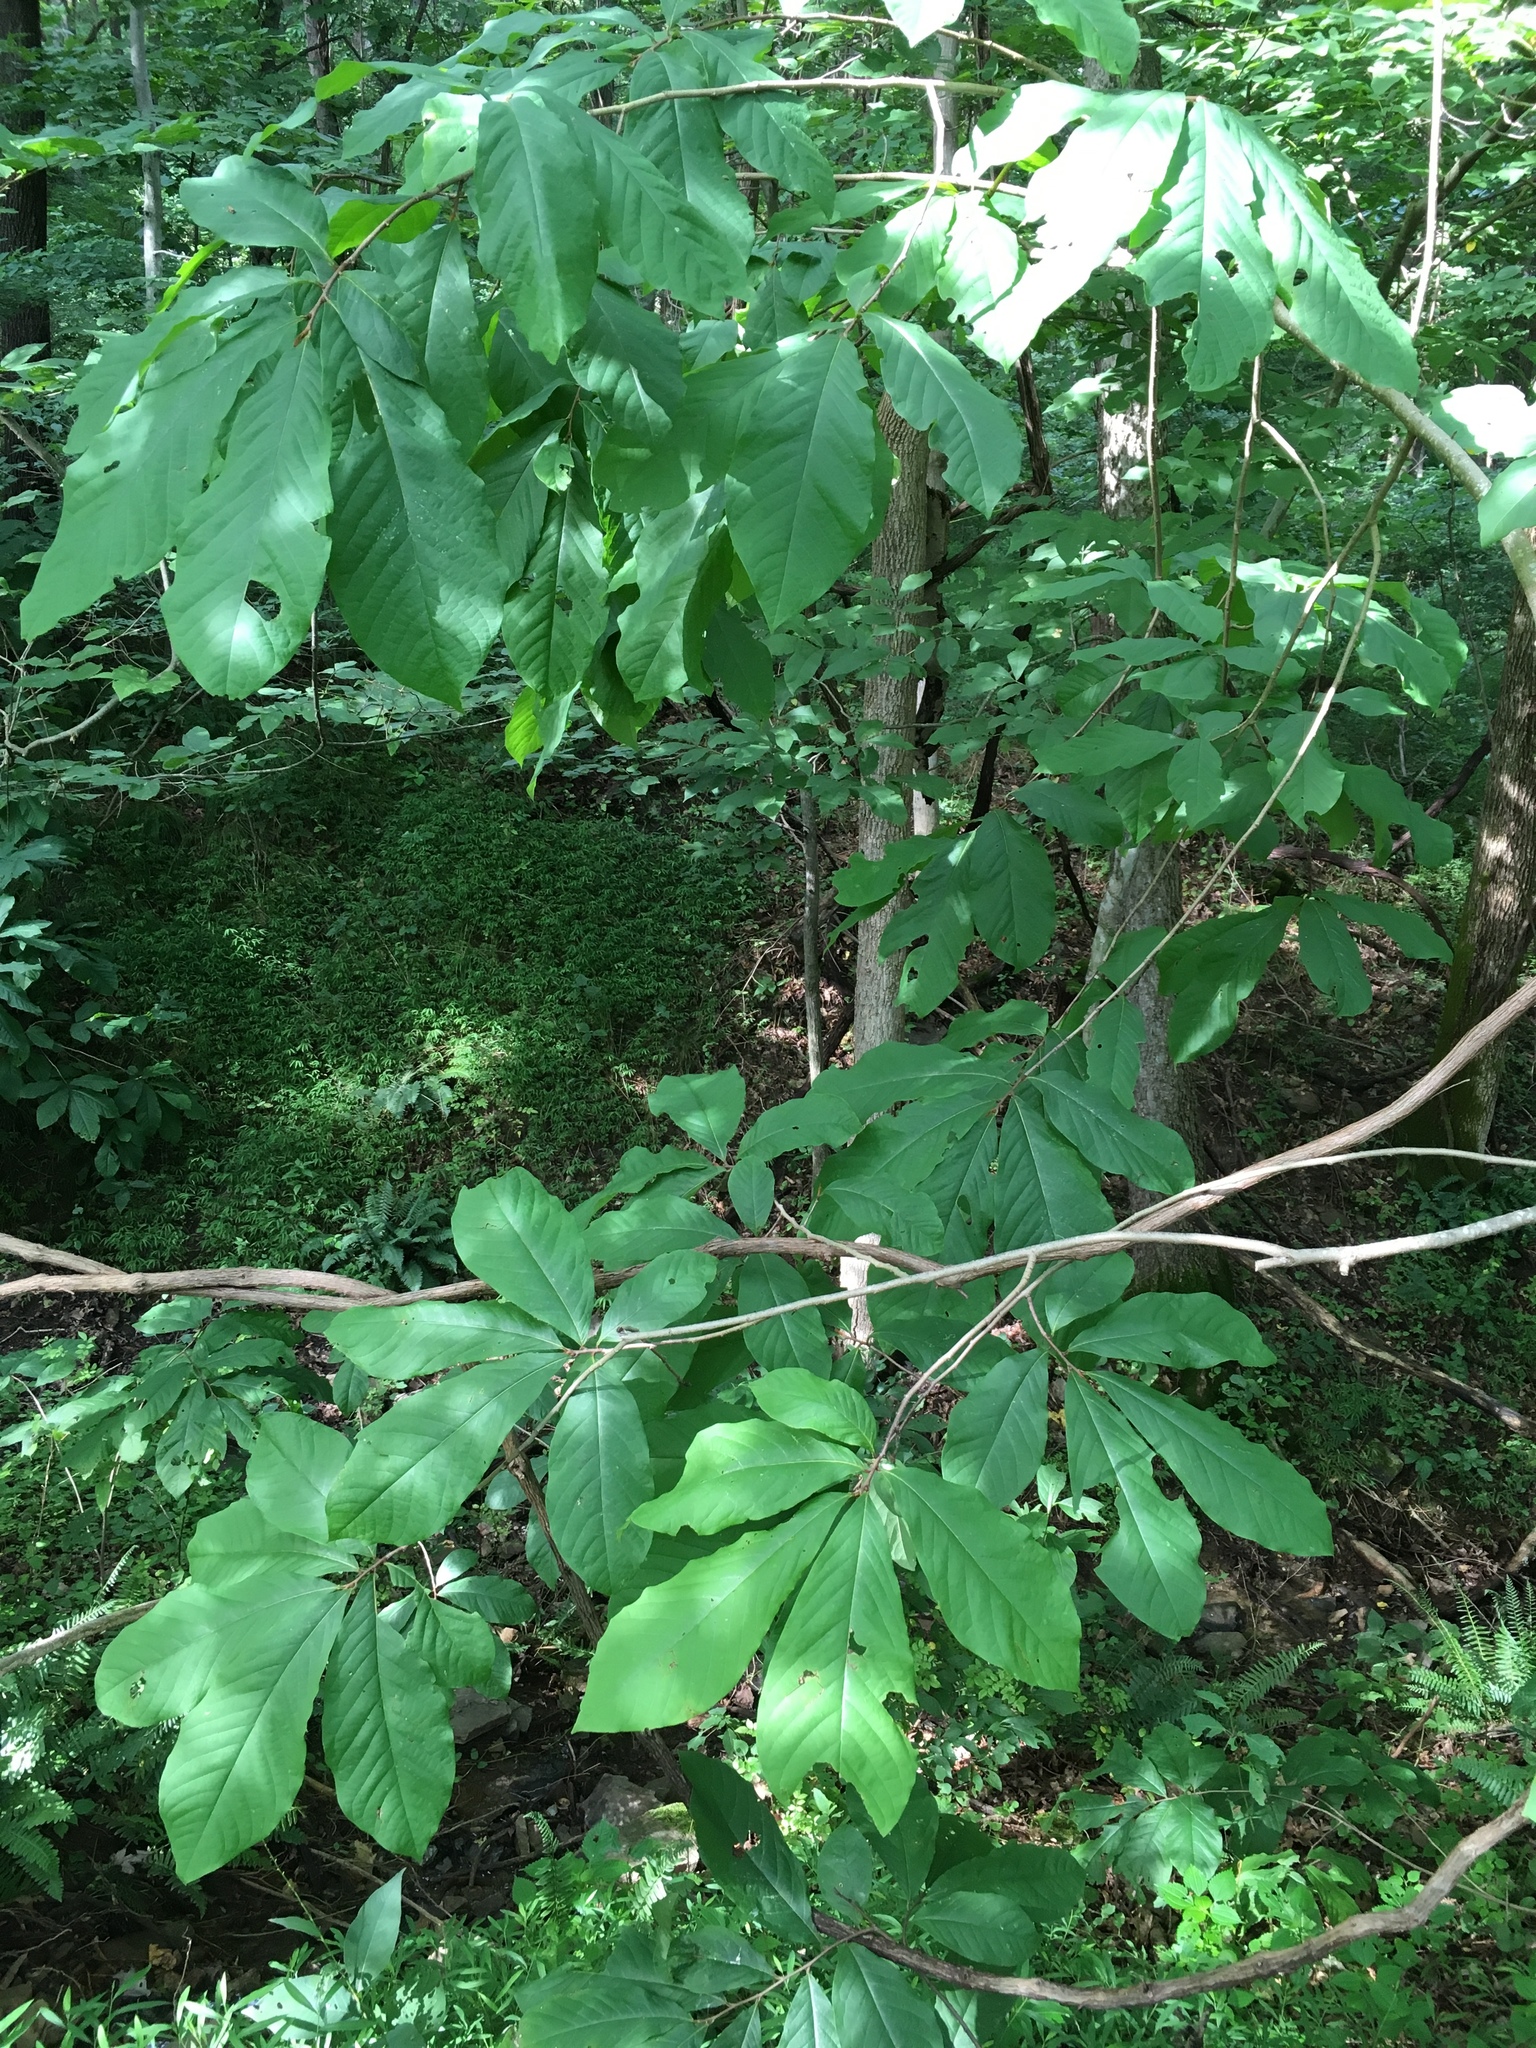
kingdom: Plantae
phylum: Tracheophyta
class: Magnoliopsida
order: Magnoliales
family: Annonaceae
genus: Asimina
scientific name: Asimina triloba
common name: Dog-banana
